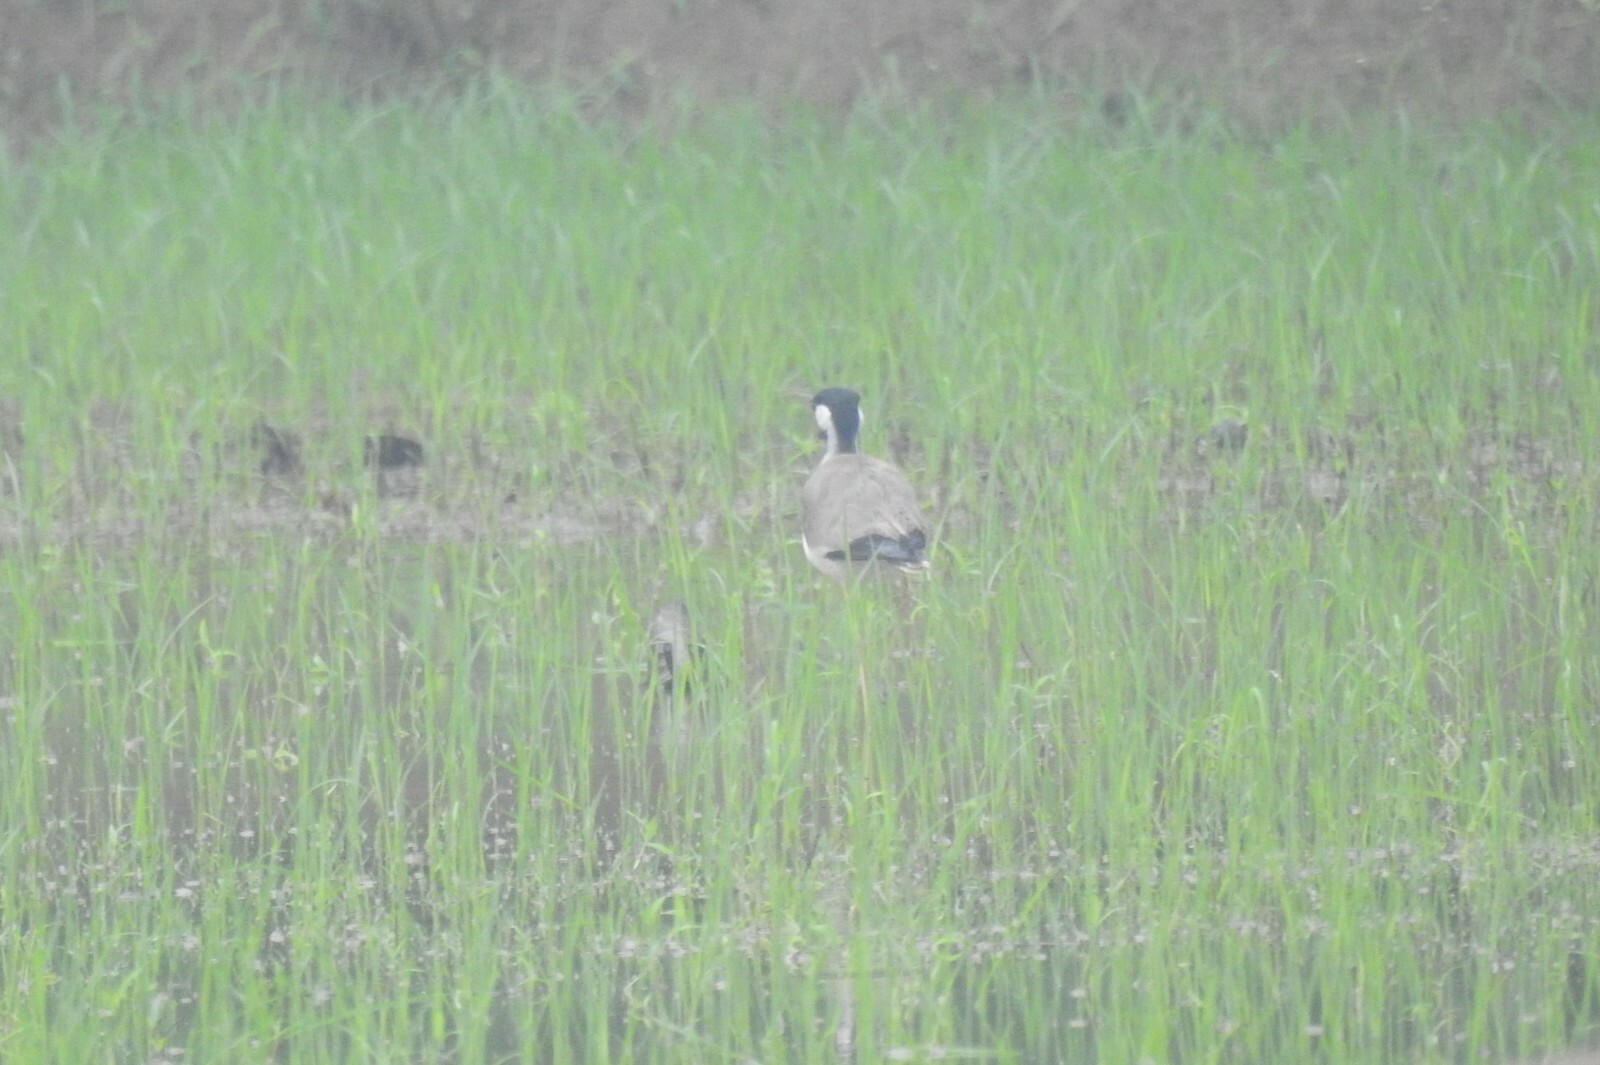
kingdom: Animalia
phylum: Chordata
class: Aves
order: Charadriiformes
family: Charadriidae
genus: Vanellus
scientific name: Vanellus indicus
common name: Red-wattled lapwing
